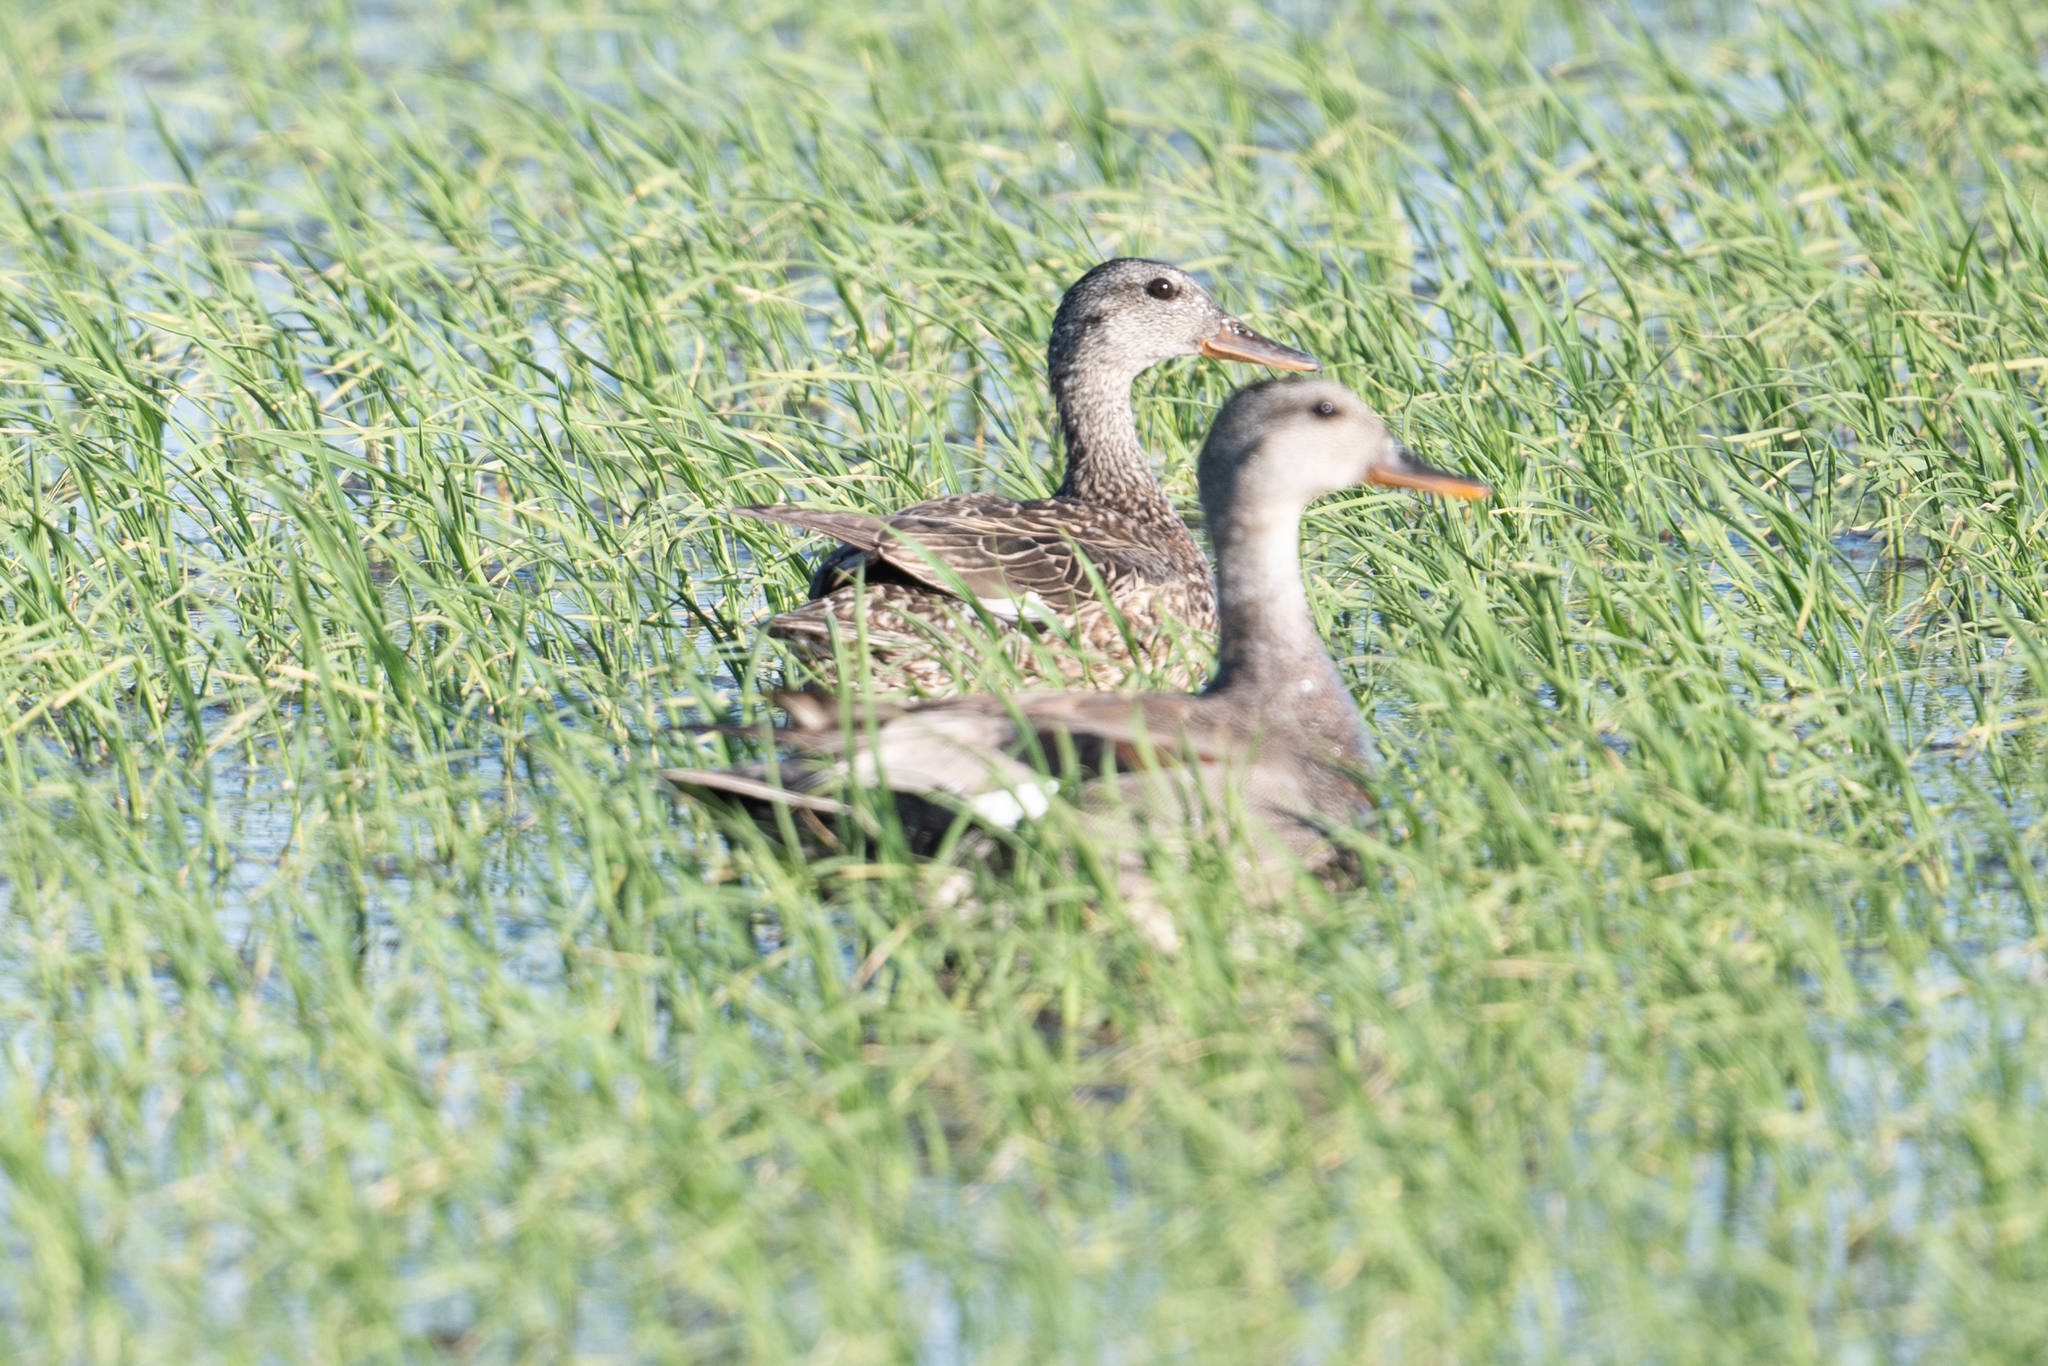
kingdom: Animalia
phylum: Chordata
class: Aves
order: Anseriformes
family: Anatidae
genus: Mareca
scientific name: Mareca strepera
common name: Gadwall
